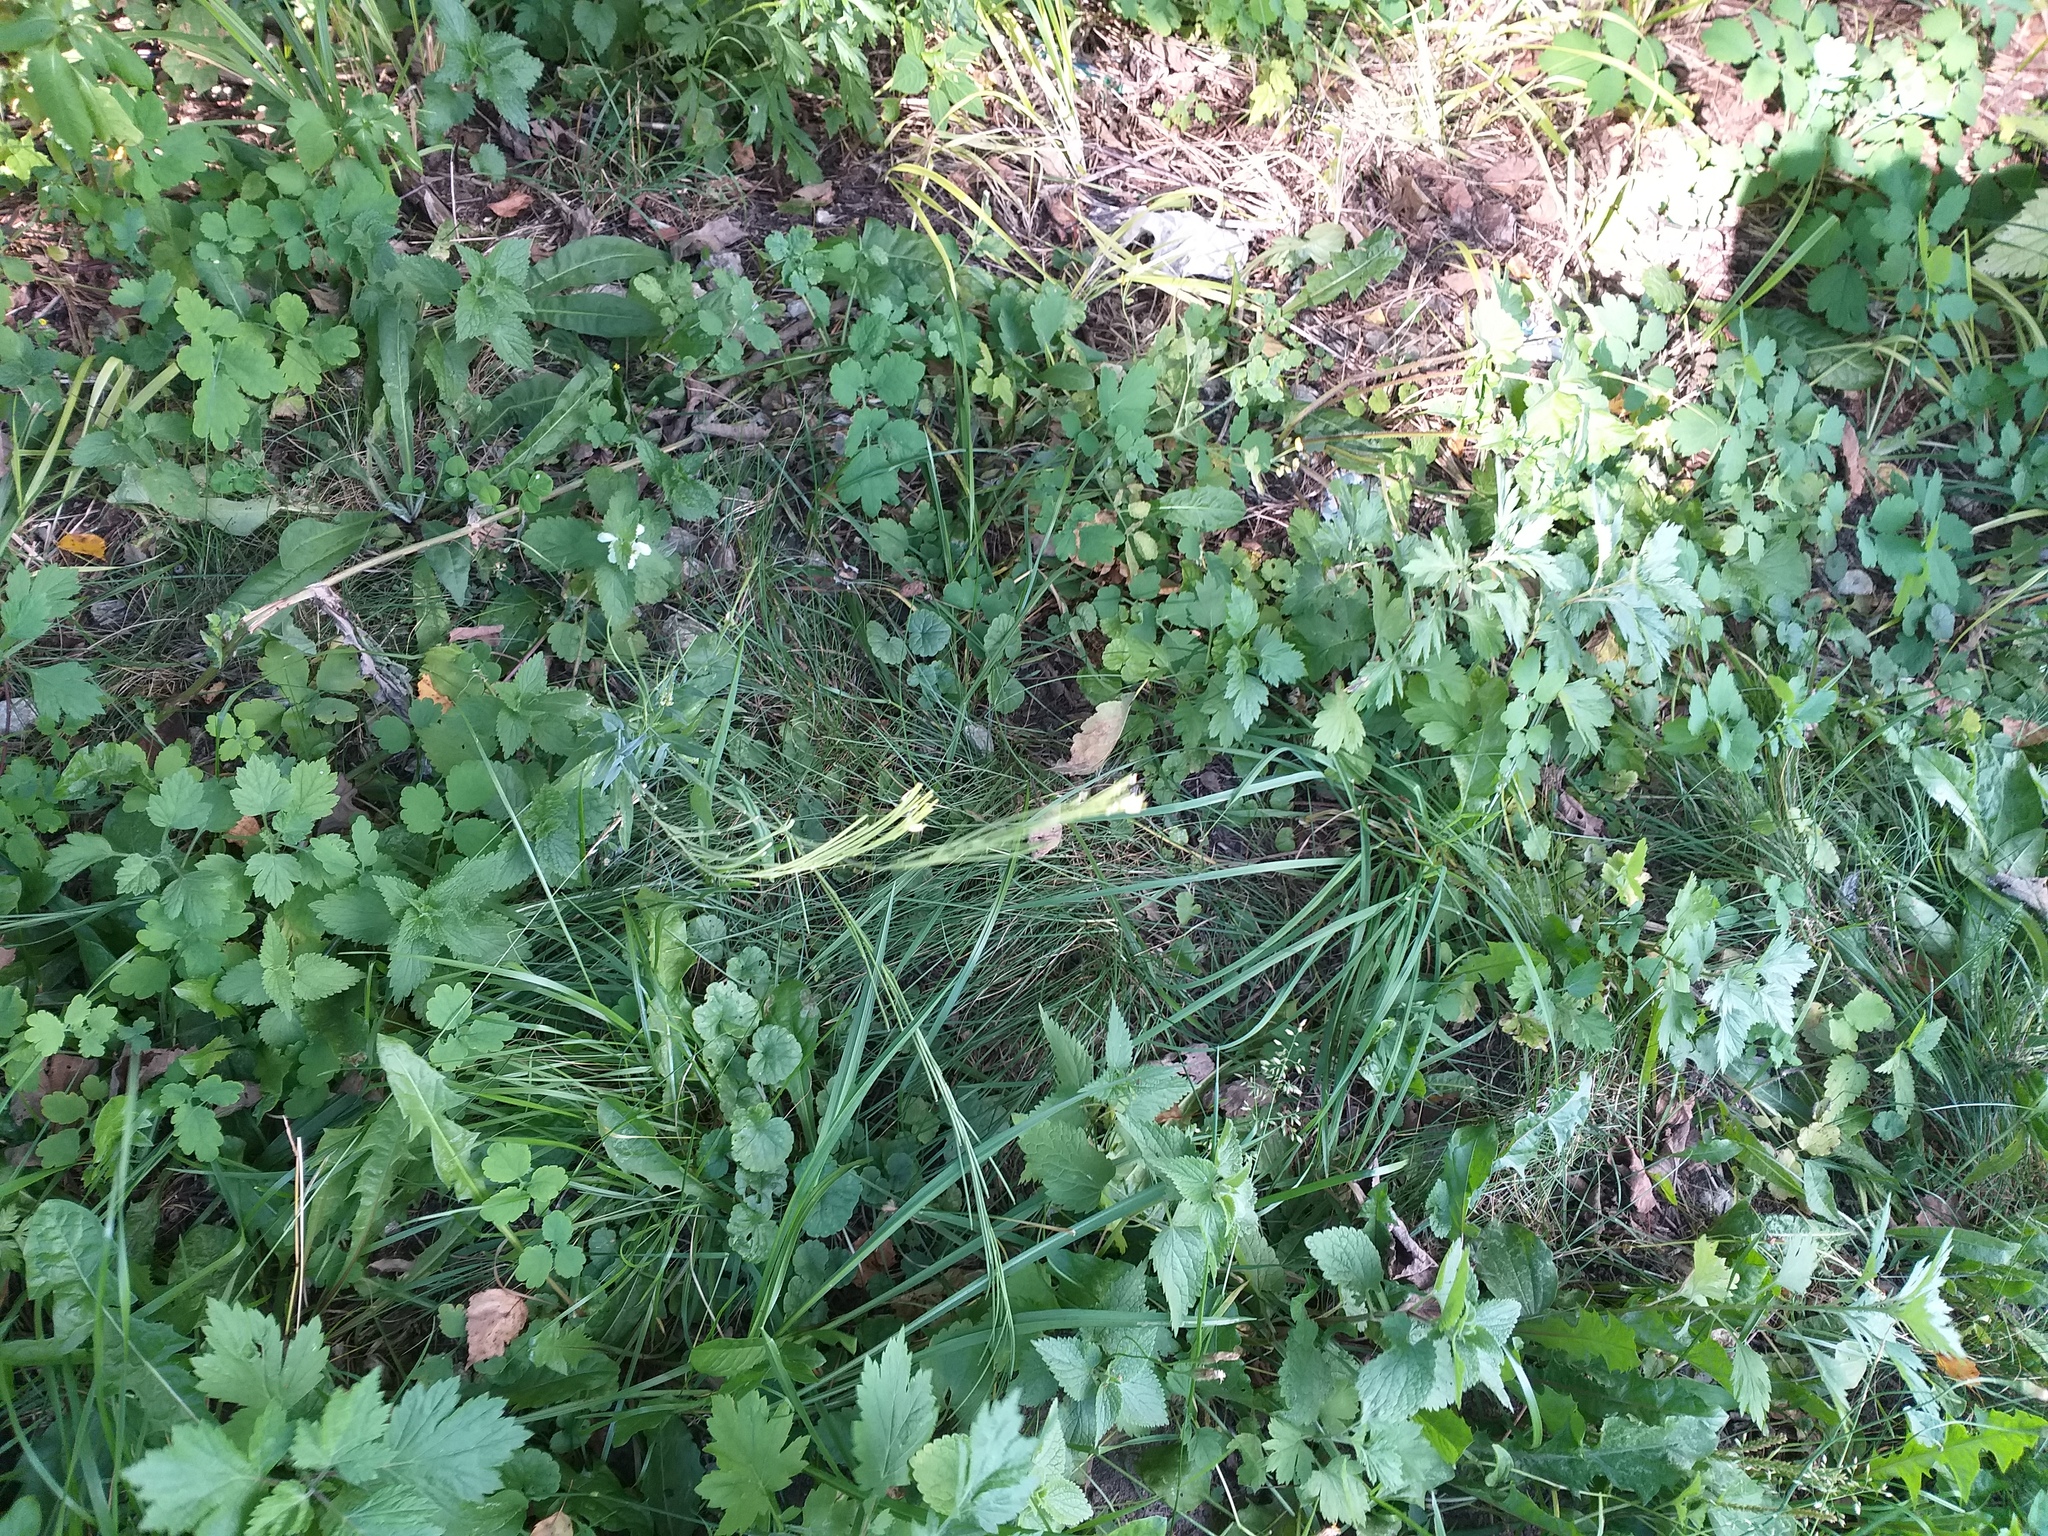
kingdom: Plantae
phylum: Tracheophyta
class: Magnoliopsida
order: Brassicales
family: Brassicaceae
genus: Turritis
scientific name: Turritis glabra
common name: Tower rockcress
